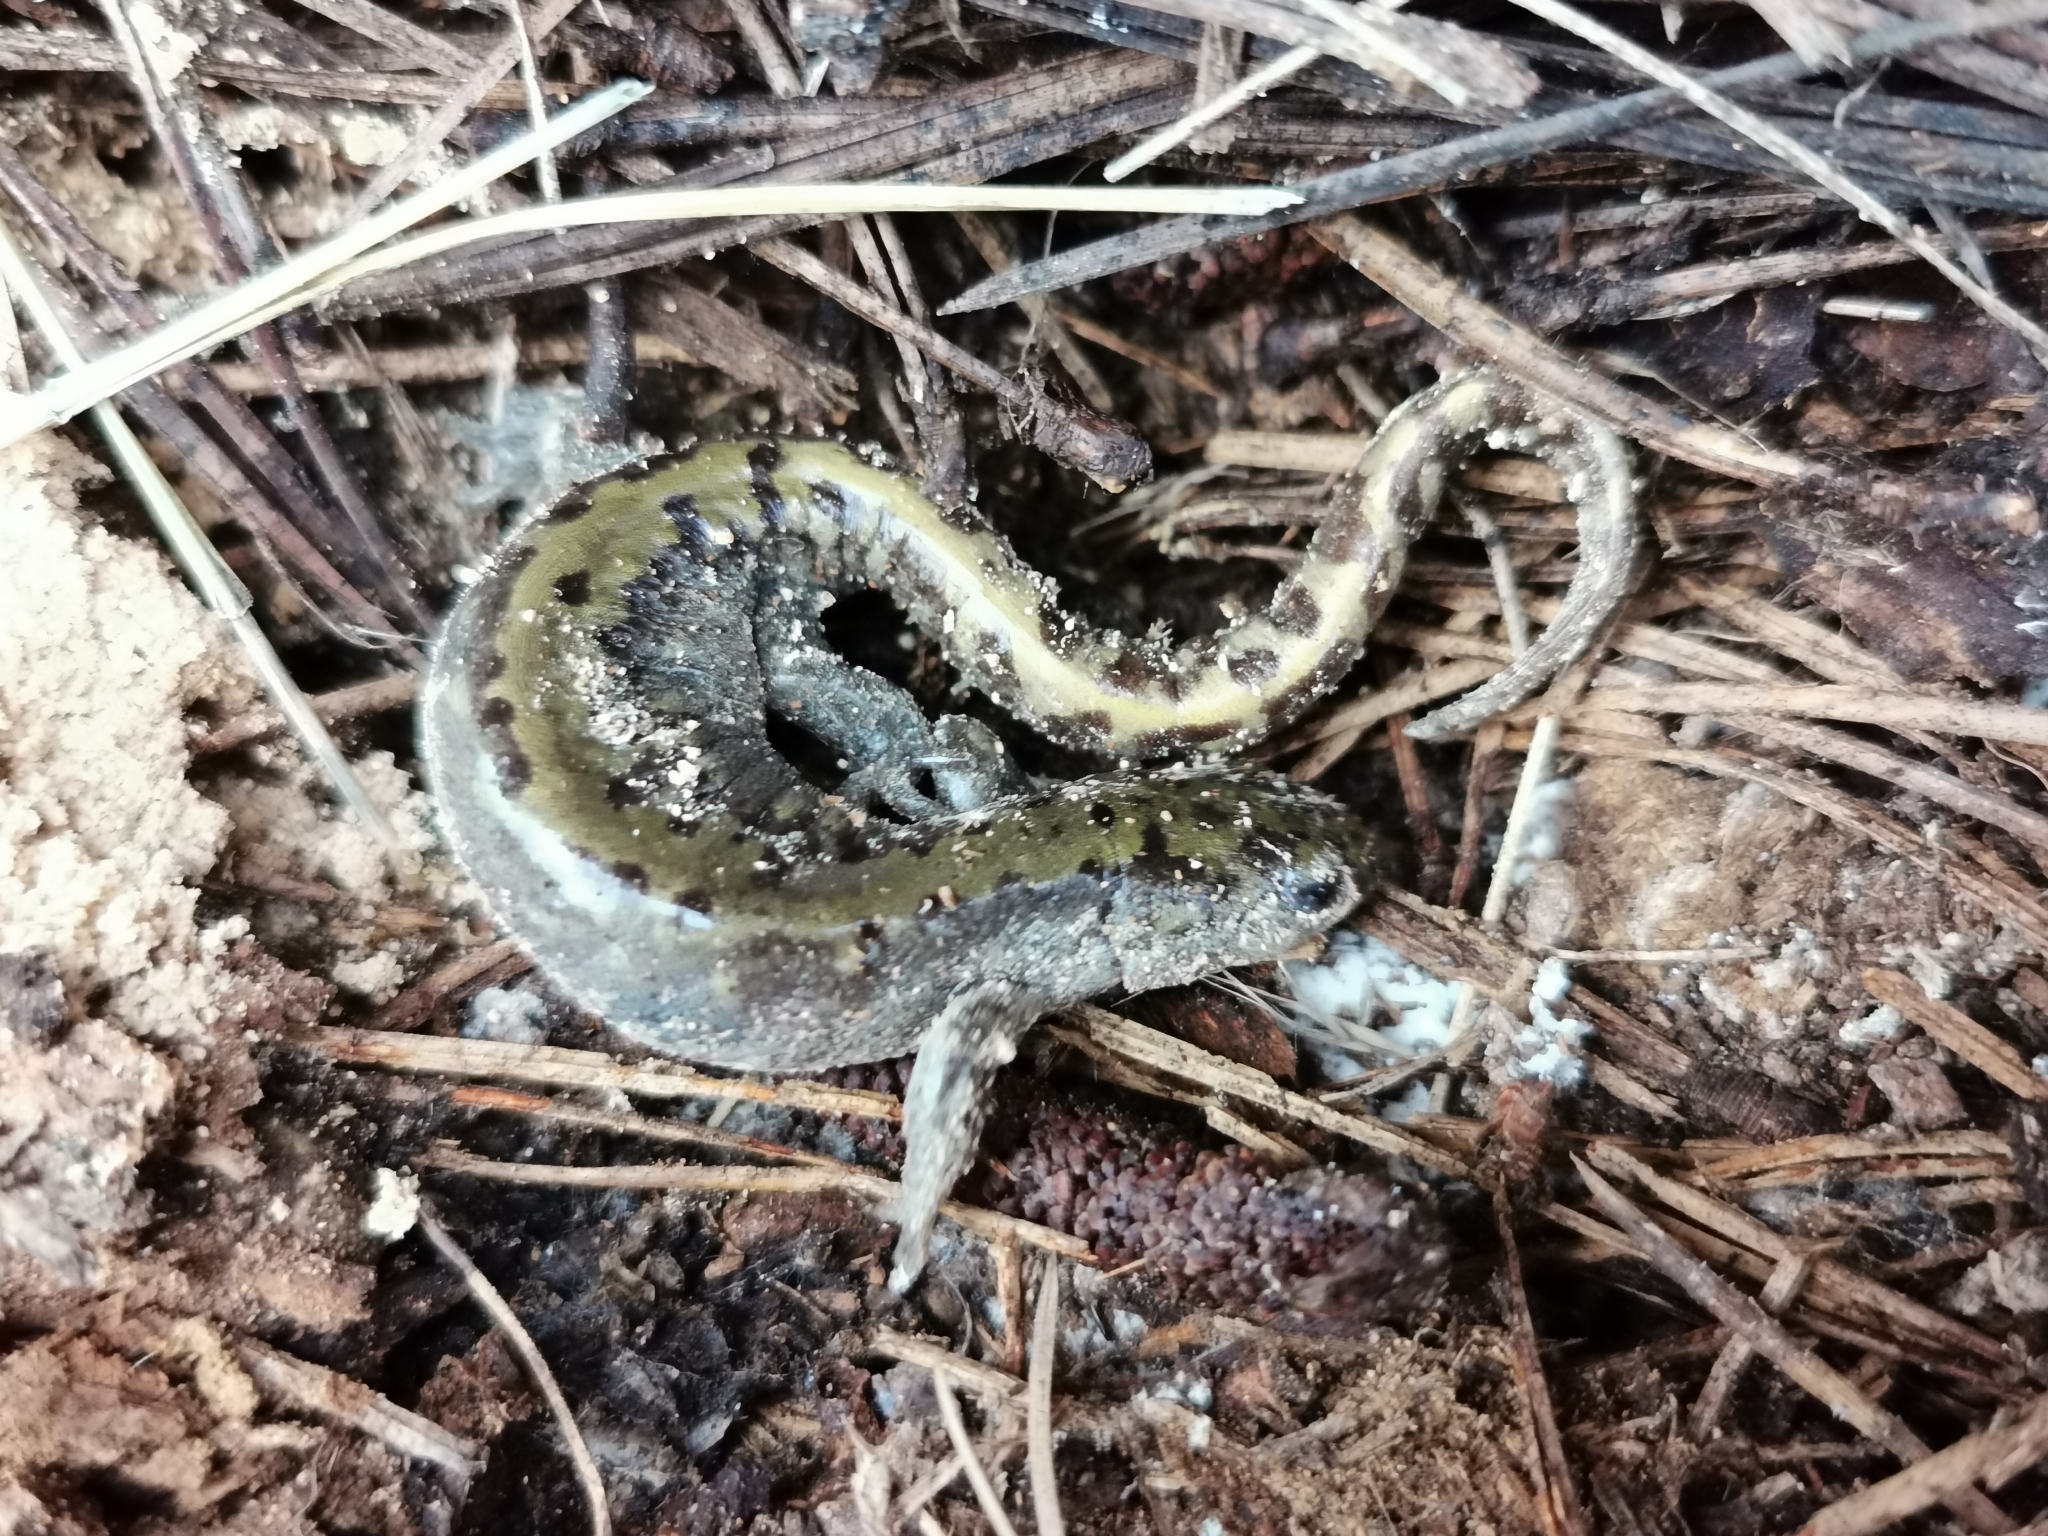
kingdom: Animalia
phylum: Chordata
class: Amphibia
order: Caudata
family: Ambystomatidae
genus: Ambystoma
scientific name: Ambystoma macrodactylum
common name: Long-toed salamander
